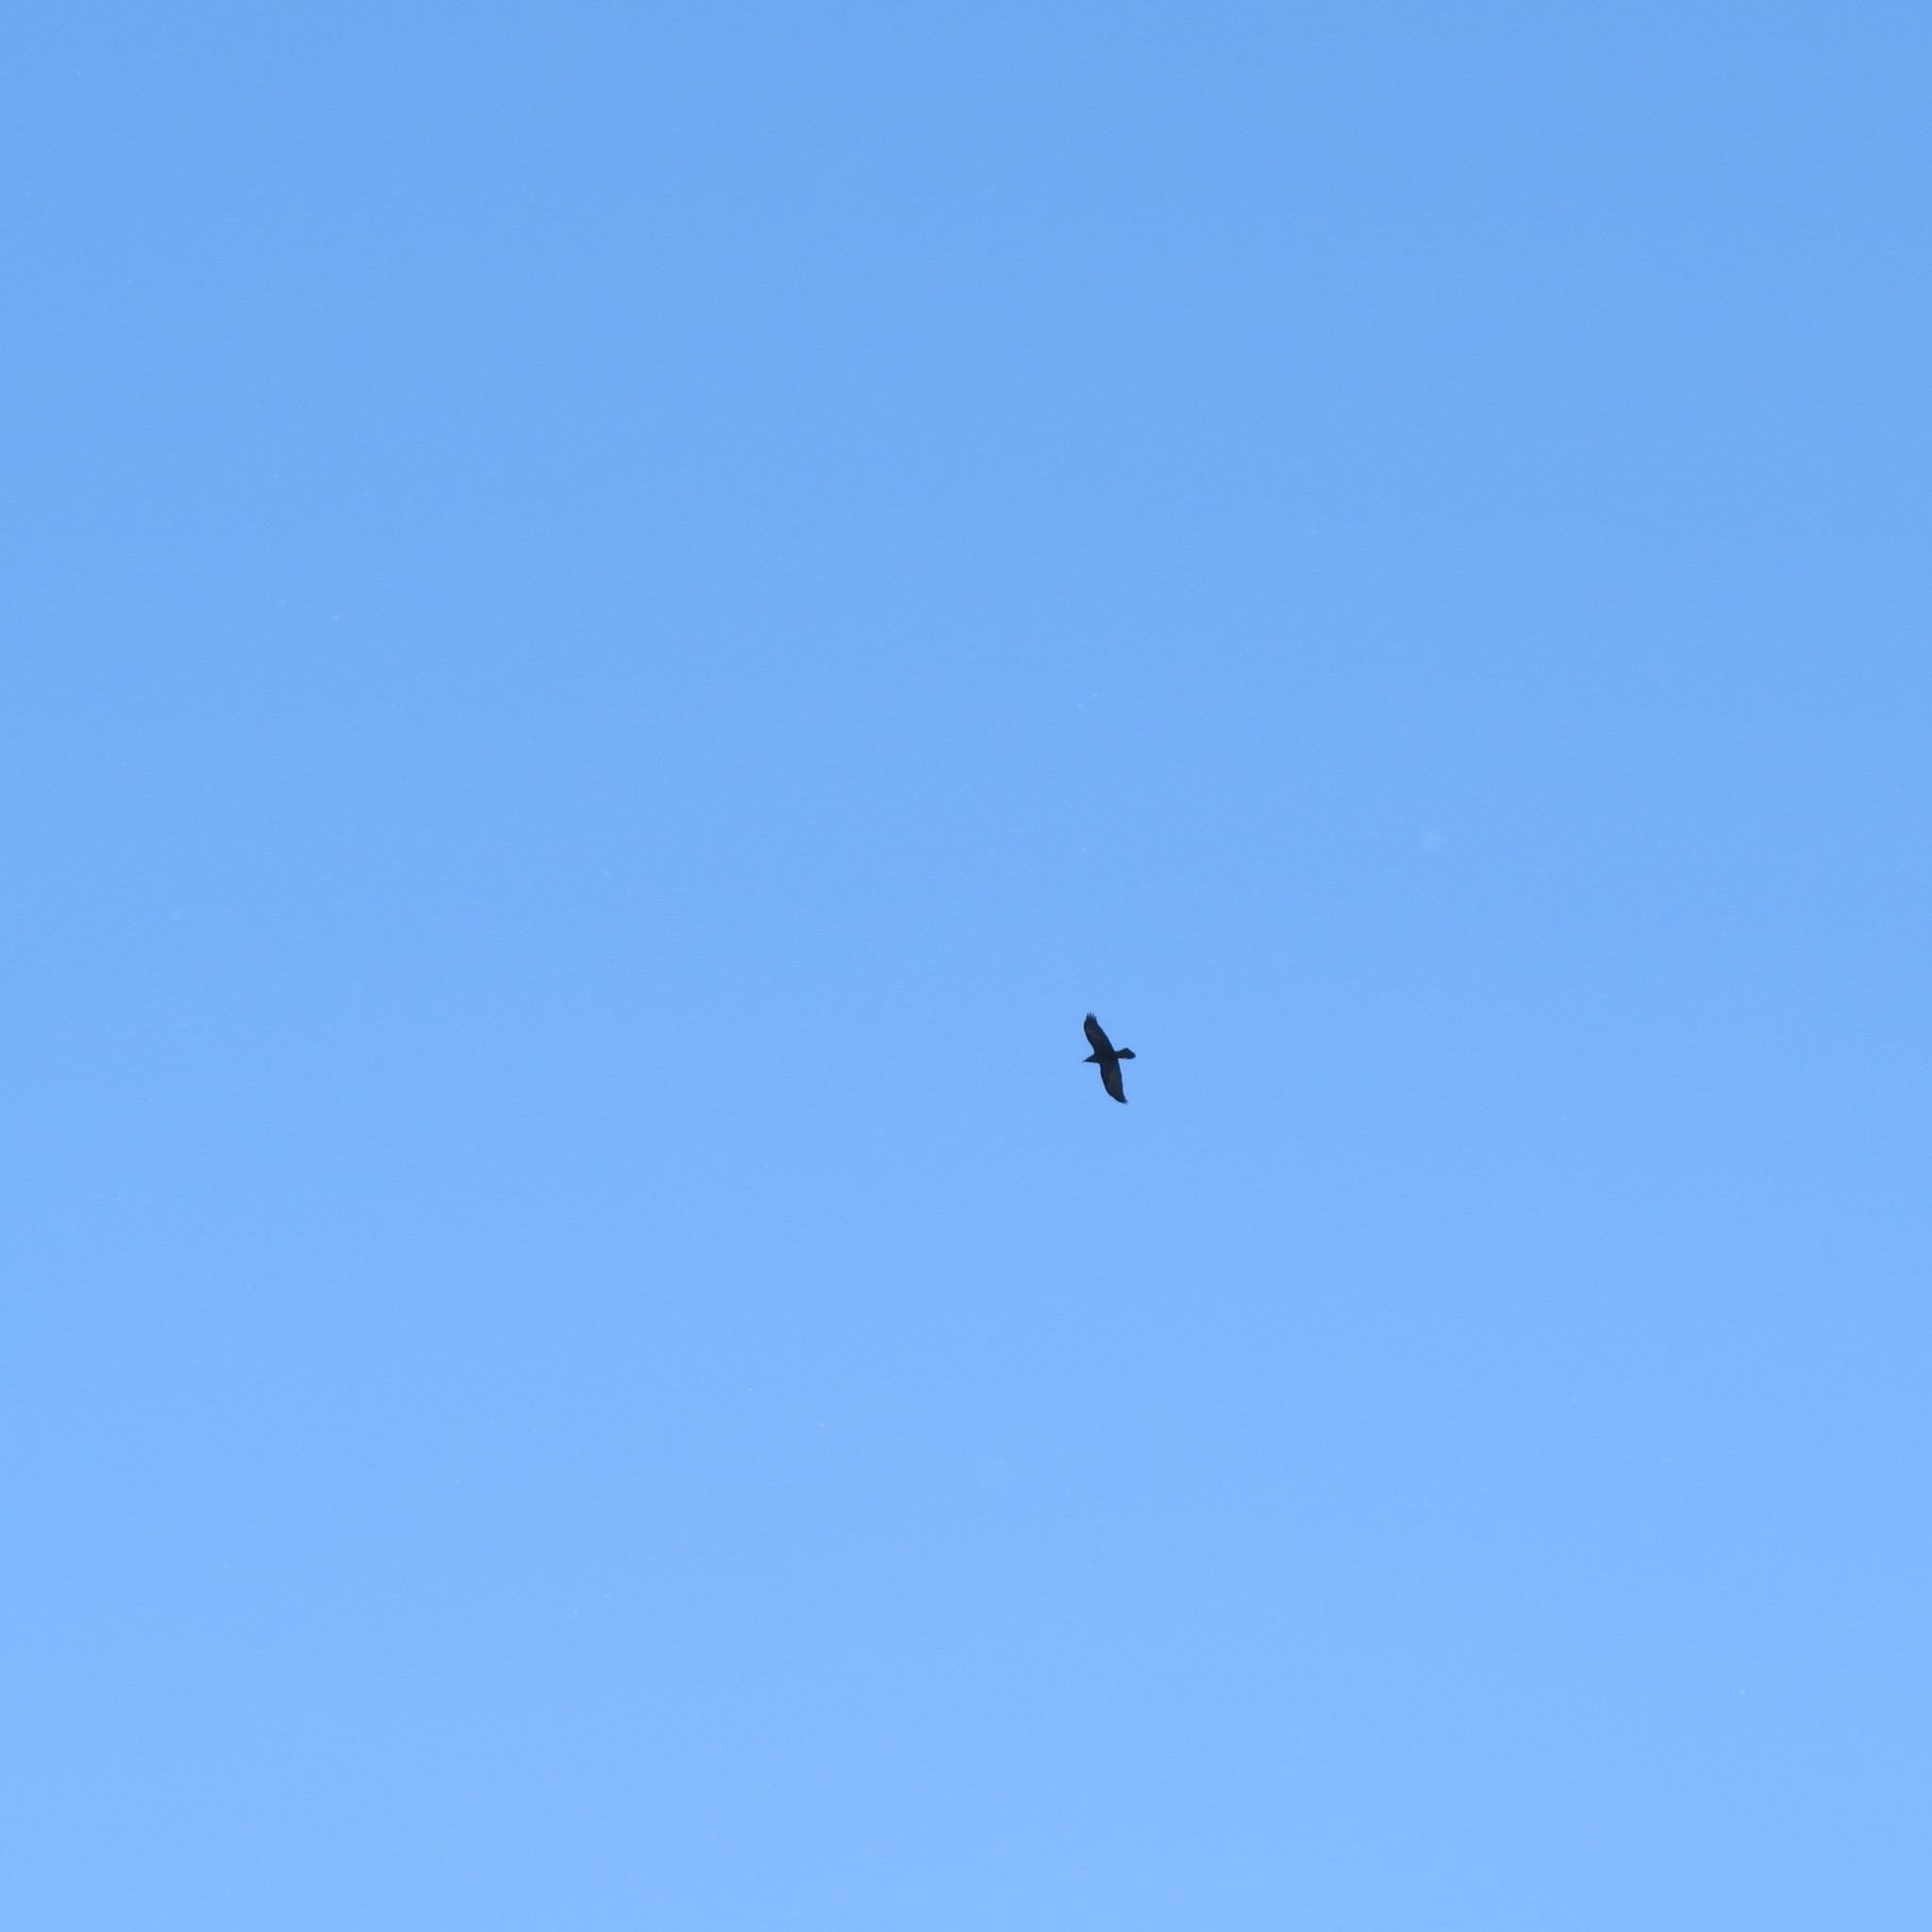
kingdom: Animalia
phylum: Chordata
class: Aves
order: Passeriformes
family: Corvidae
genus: Corvus
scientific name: Corvus corax
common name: Common raven
